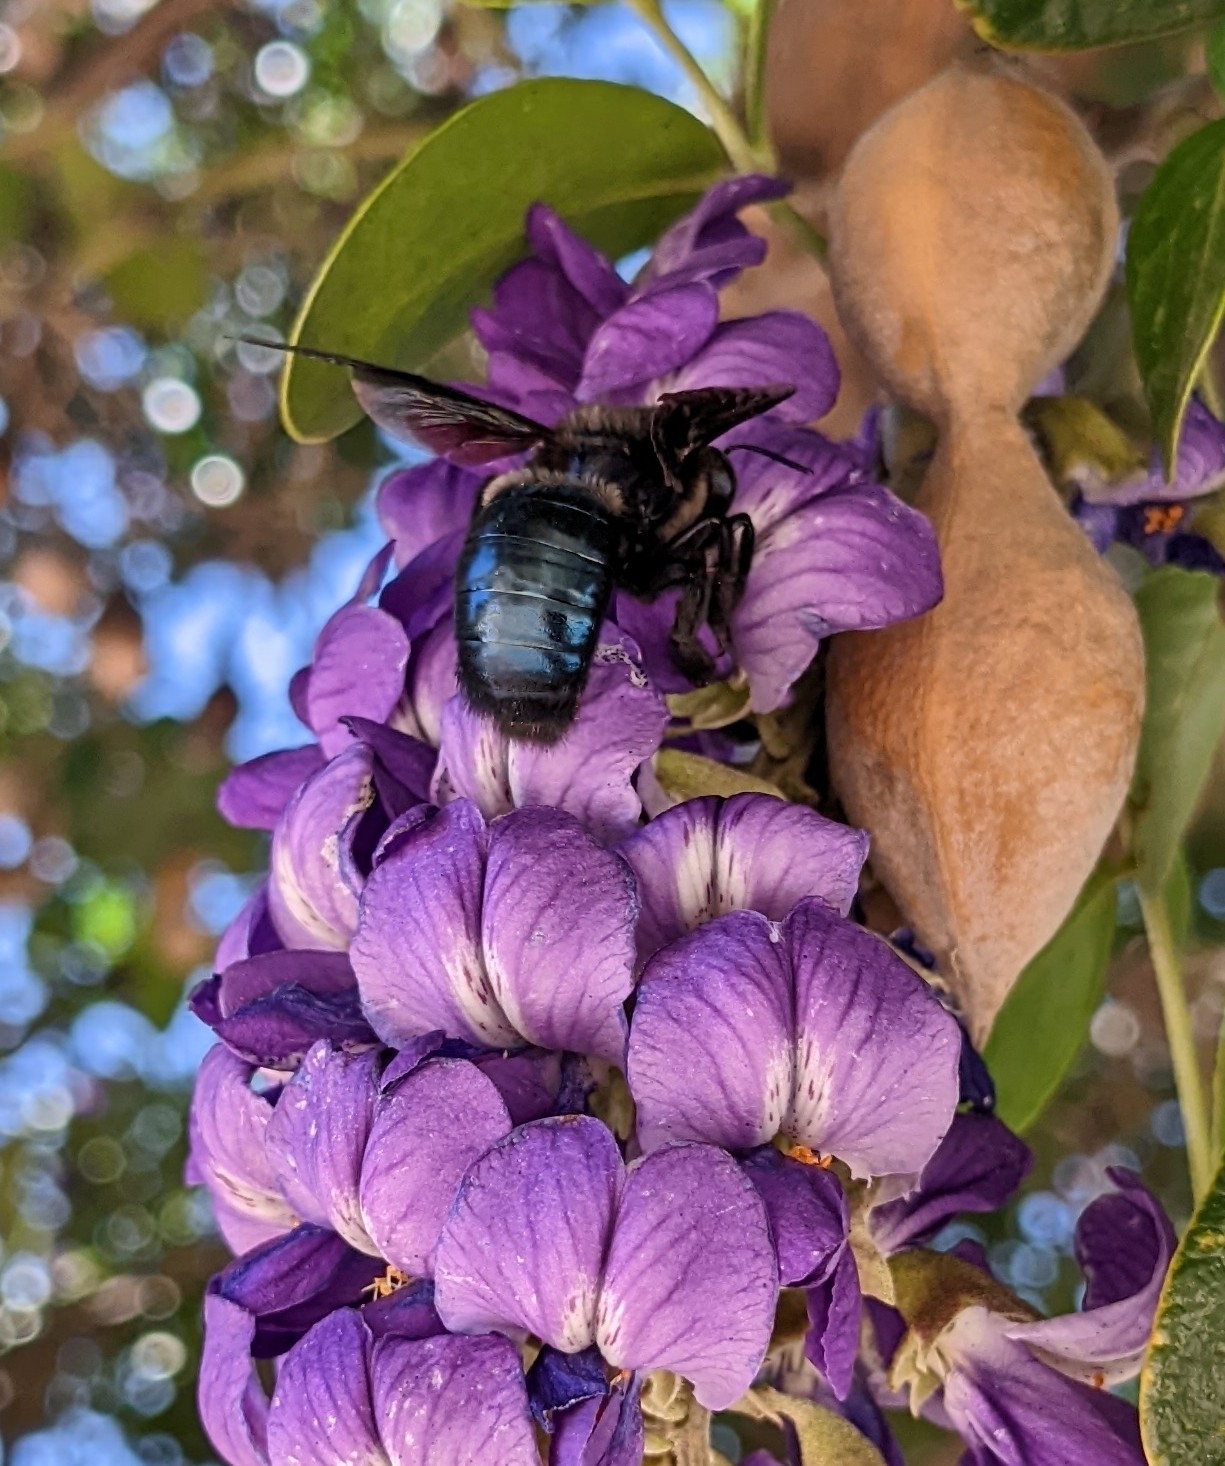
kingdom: Animalia
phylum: Arthropoda
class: Insecta
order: Hymenoptera
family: Apidae
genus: Xylocopa
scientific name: Xylocopa californica
